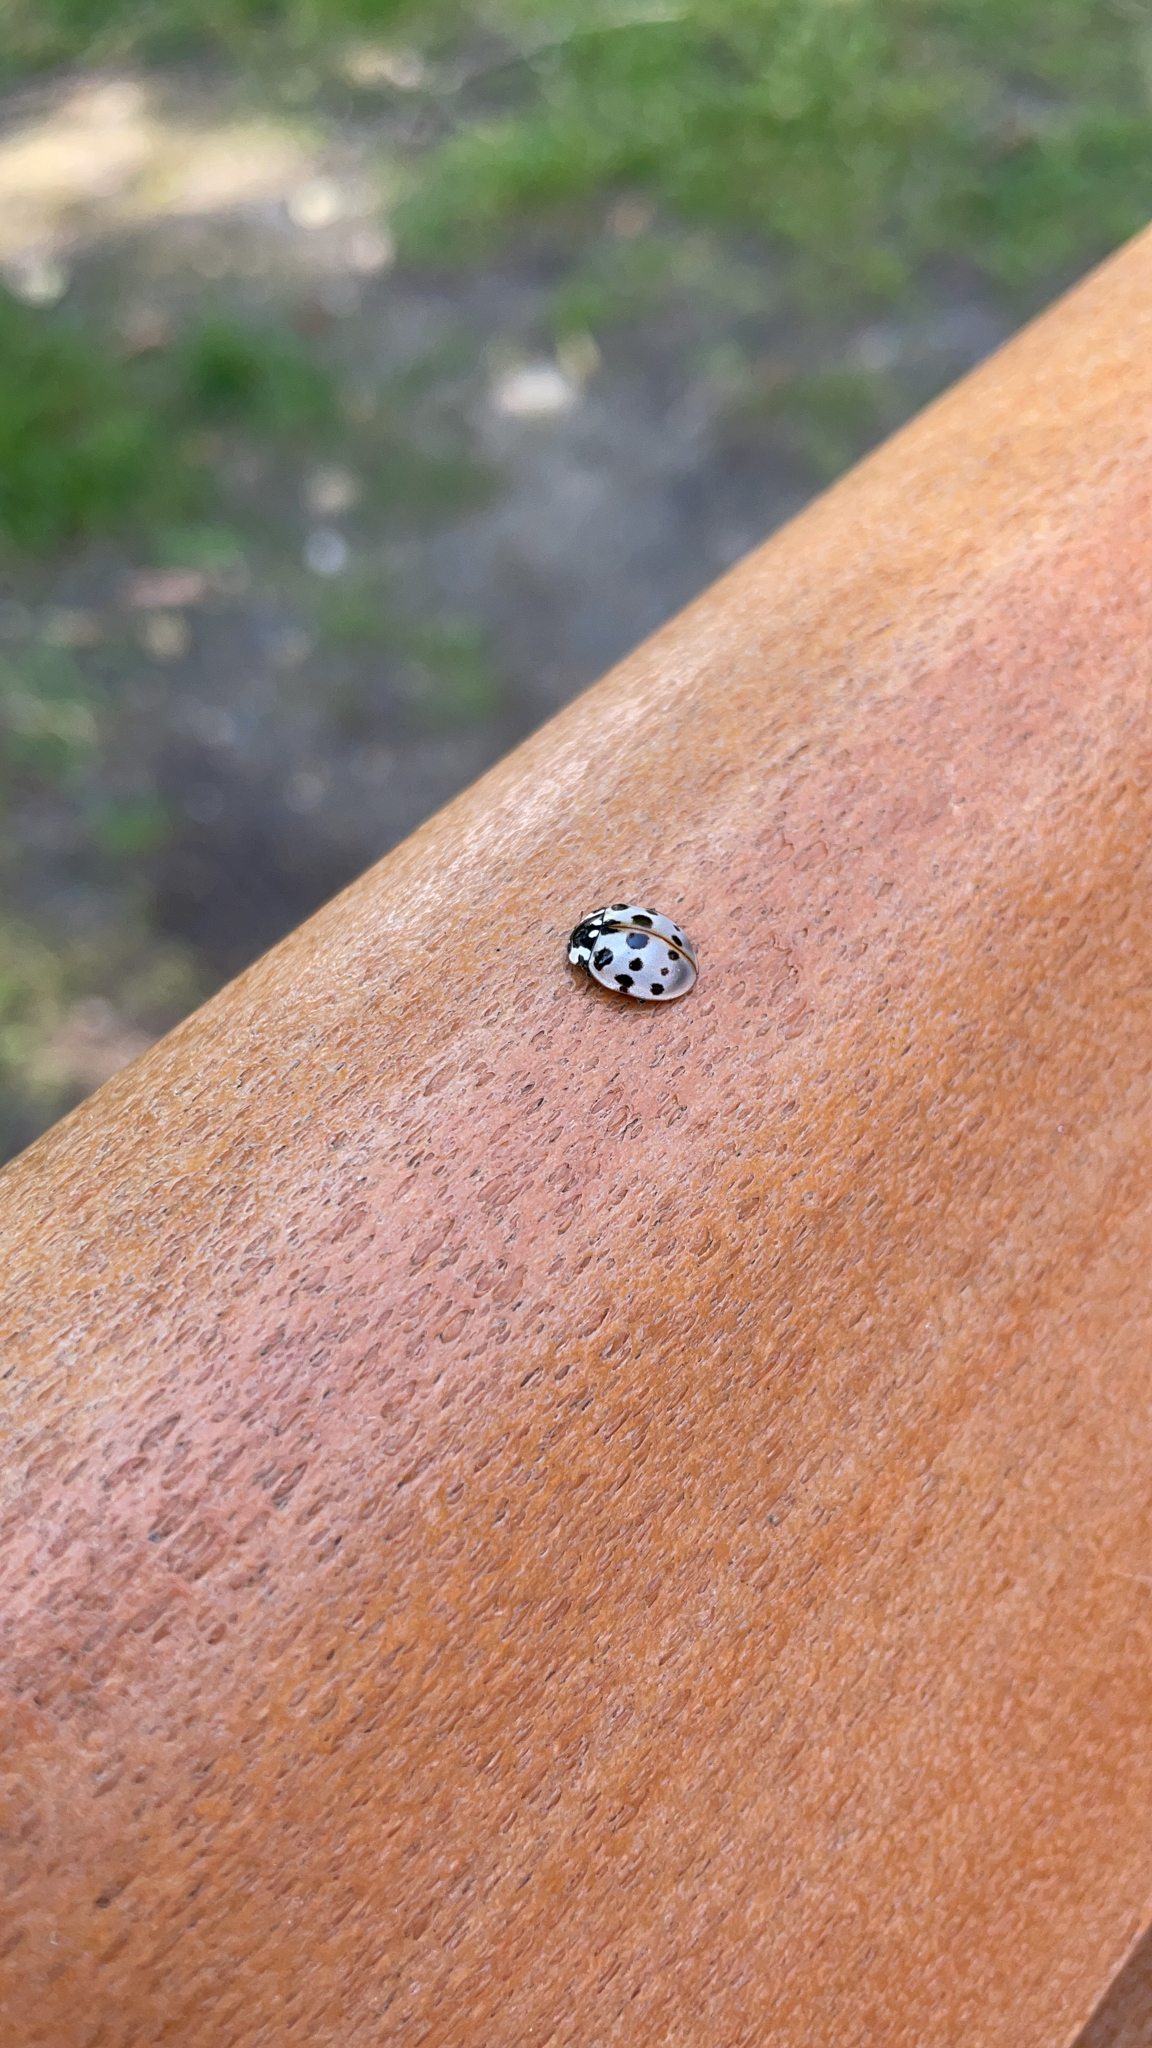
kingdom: Animalia
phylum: Arthropoda
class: Insecta
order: Coleoptera
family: Coccinellidae
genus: Anatis
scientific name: Anatis labiculata
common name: Fifteen-spotted lady beetle
